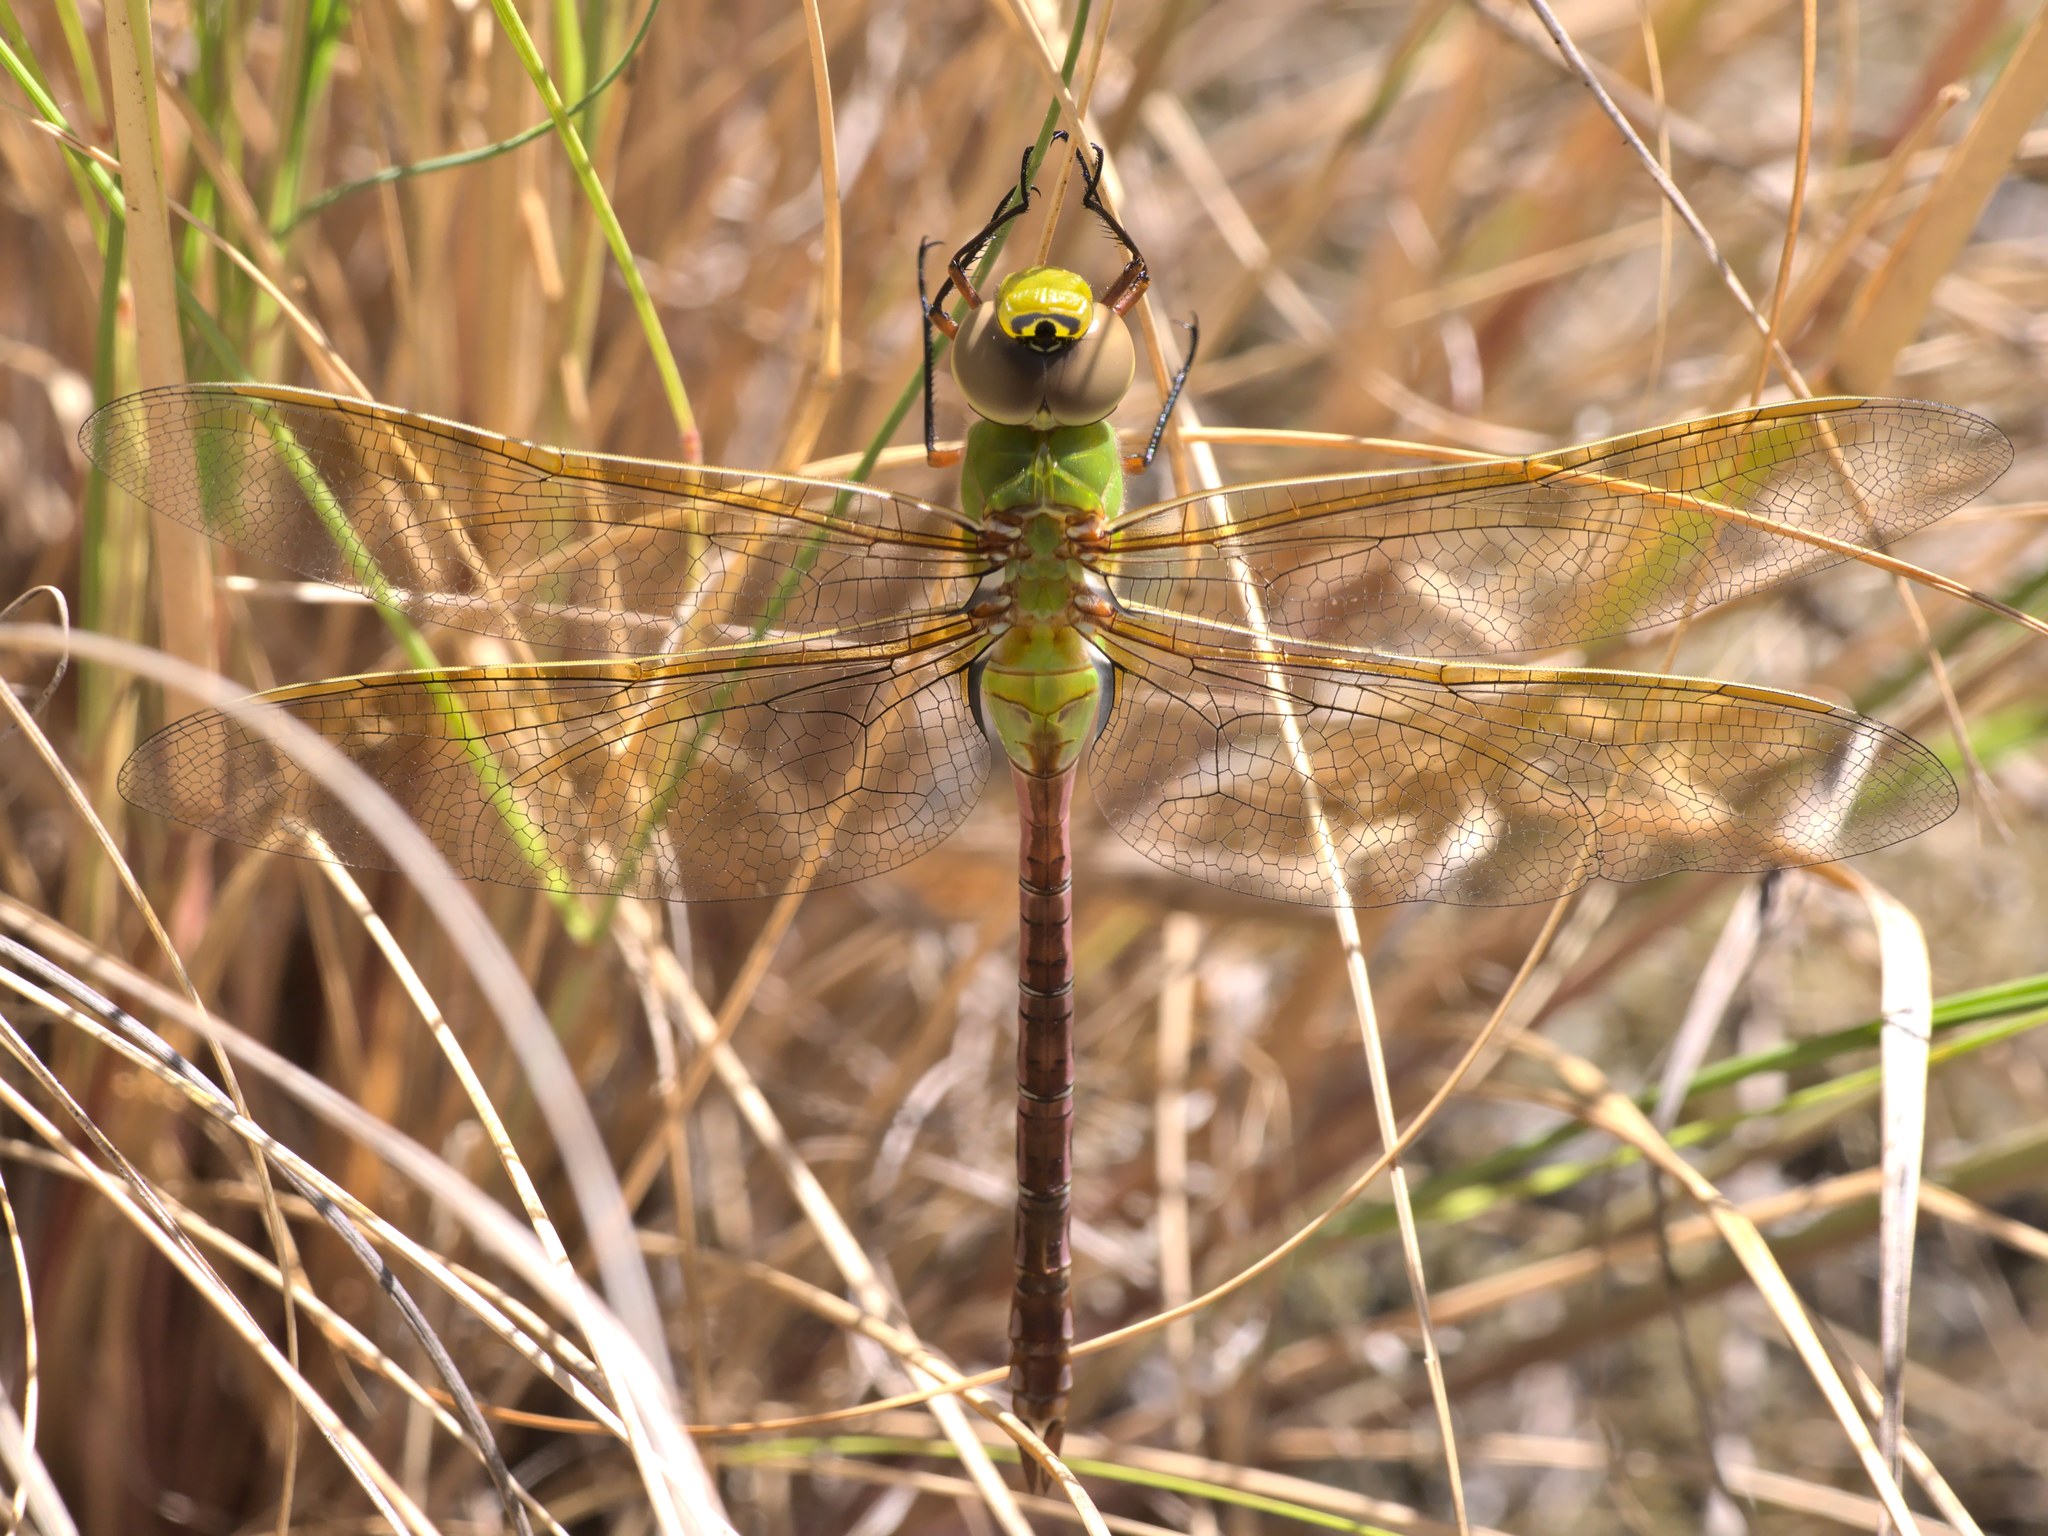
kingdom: Animalia
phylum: Arthropoda
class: Insecta
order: Odonata
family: Aeshnidae
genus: Anax
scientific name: Anax junius
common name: Common green darner
